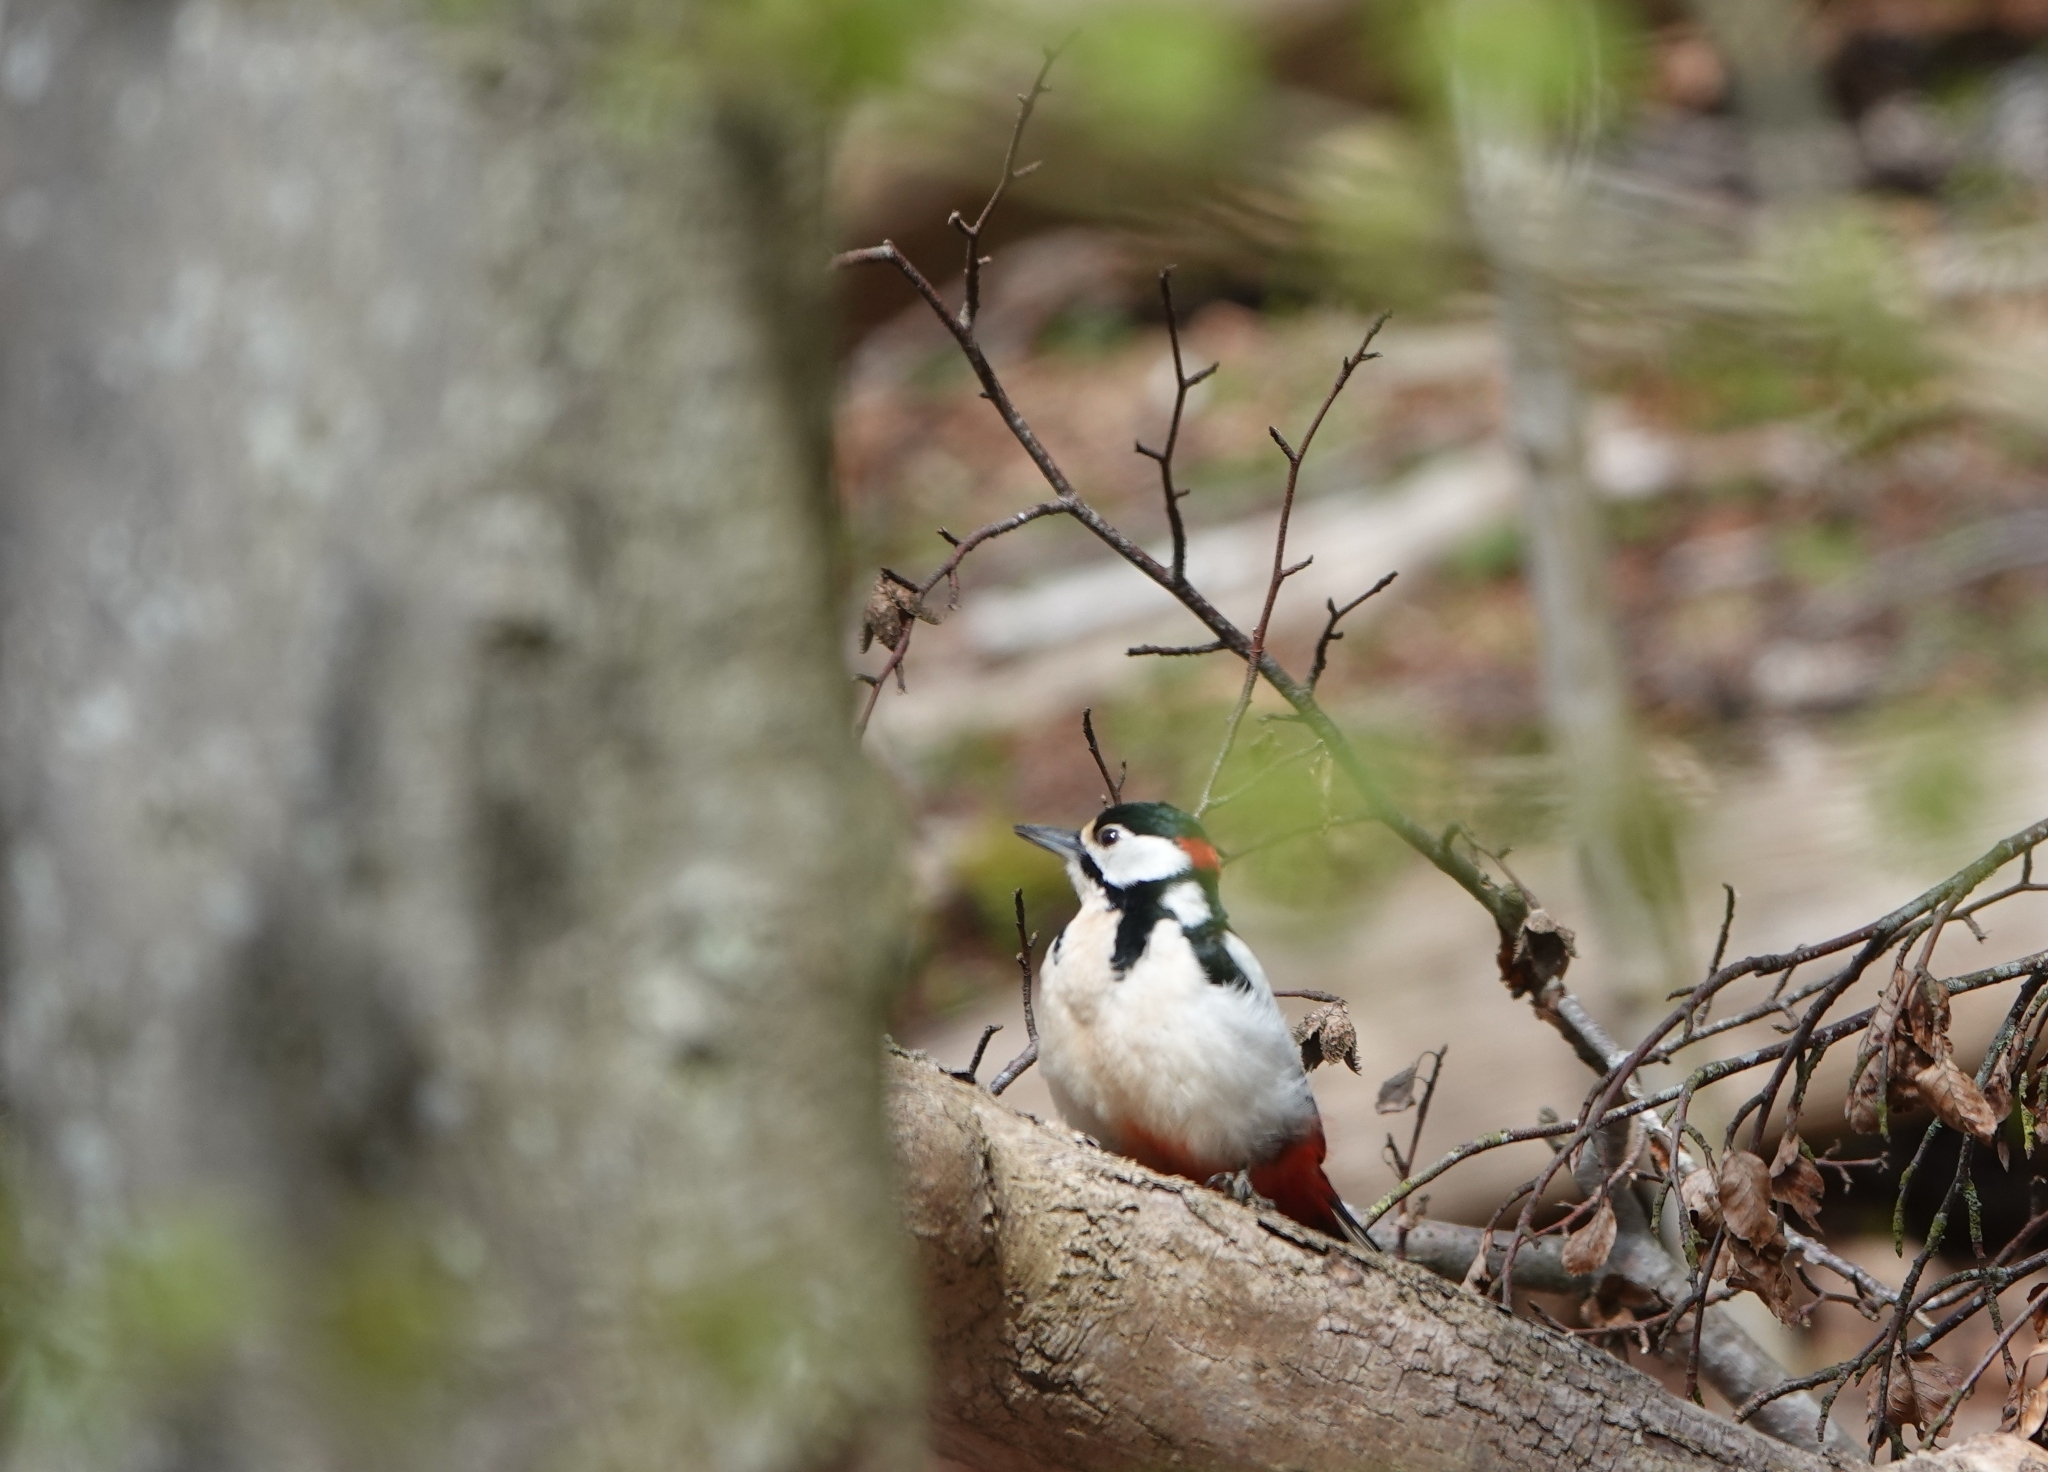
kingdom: Animalia
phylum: Chordata
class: Aves
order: Piciformes
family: Picidae
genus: Dendrocopos
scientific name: Dendrocopos major
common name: Great spotted woodpecker
